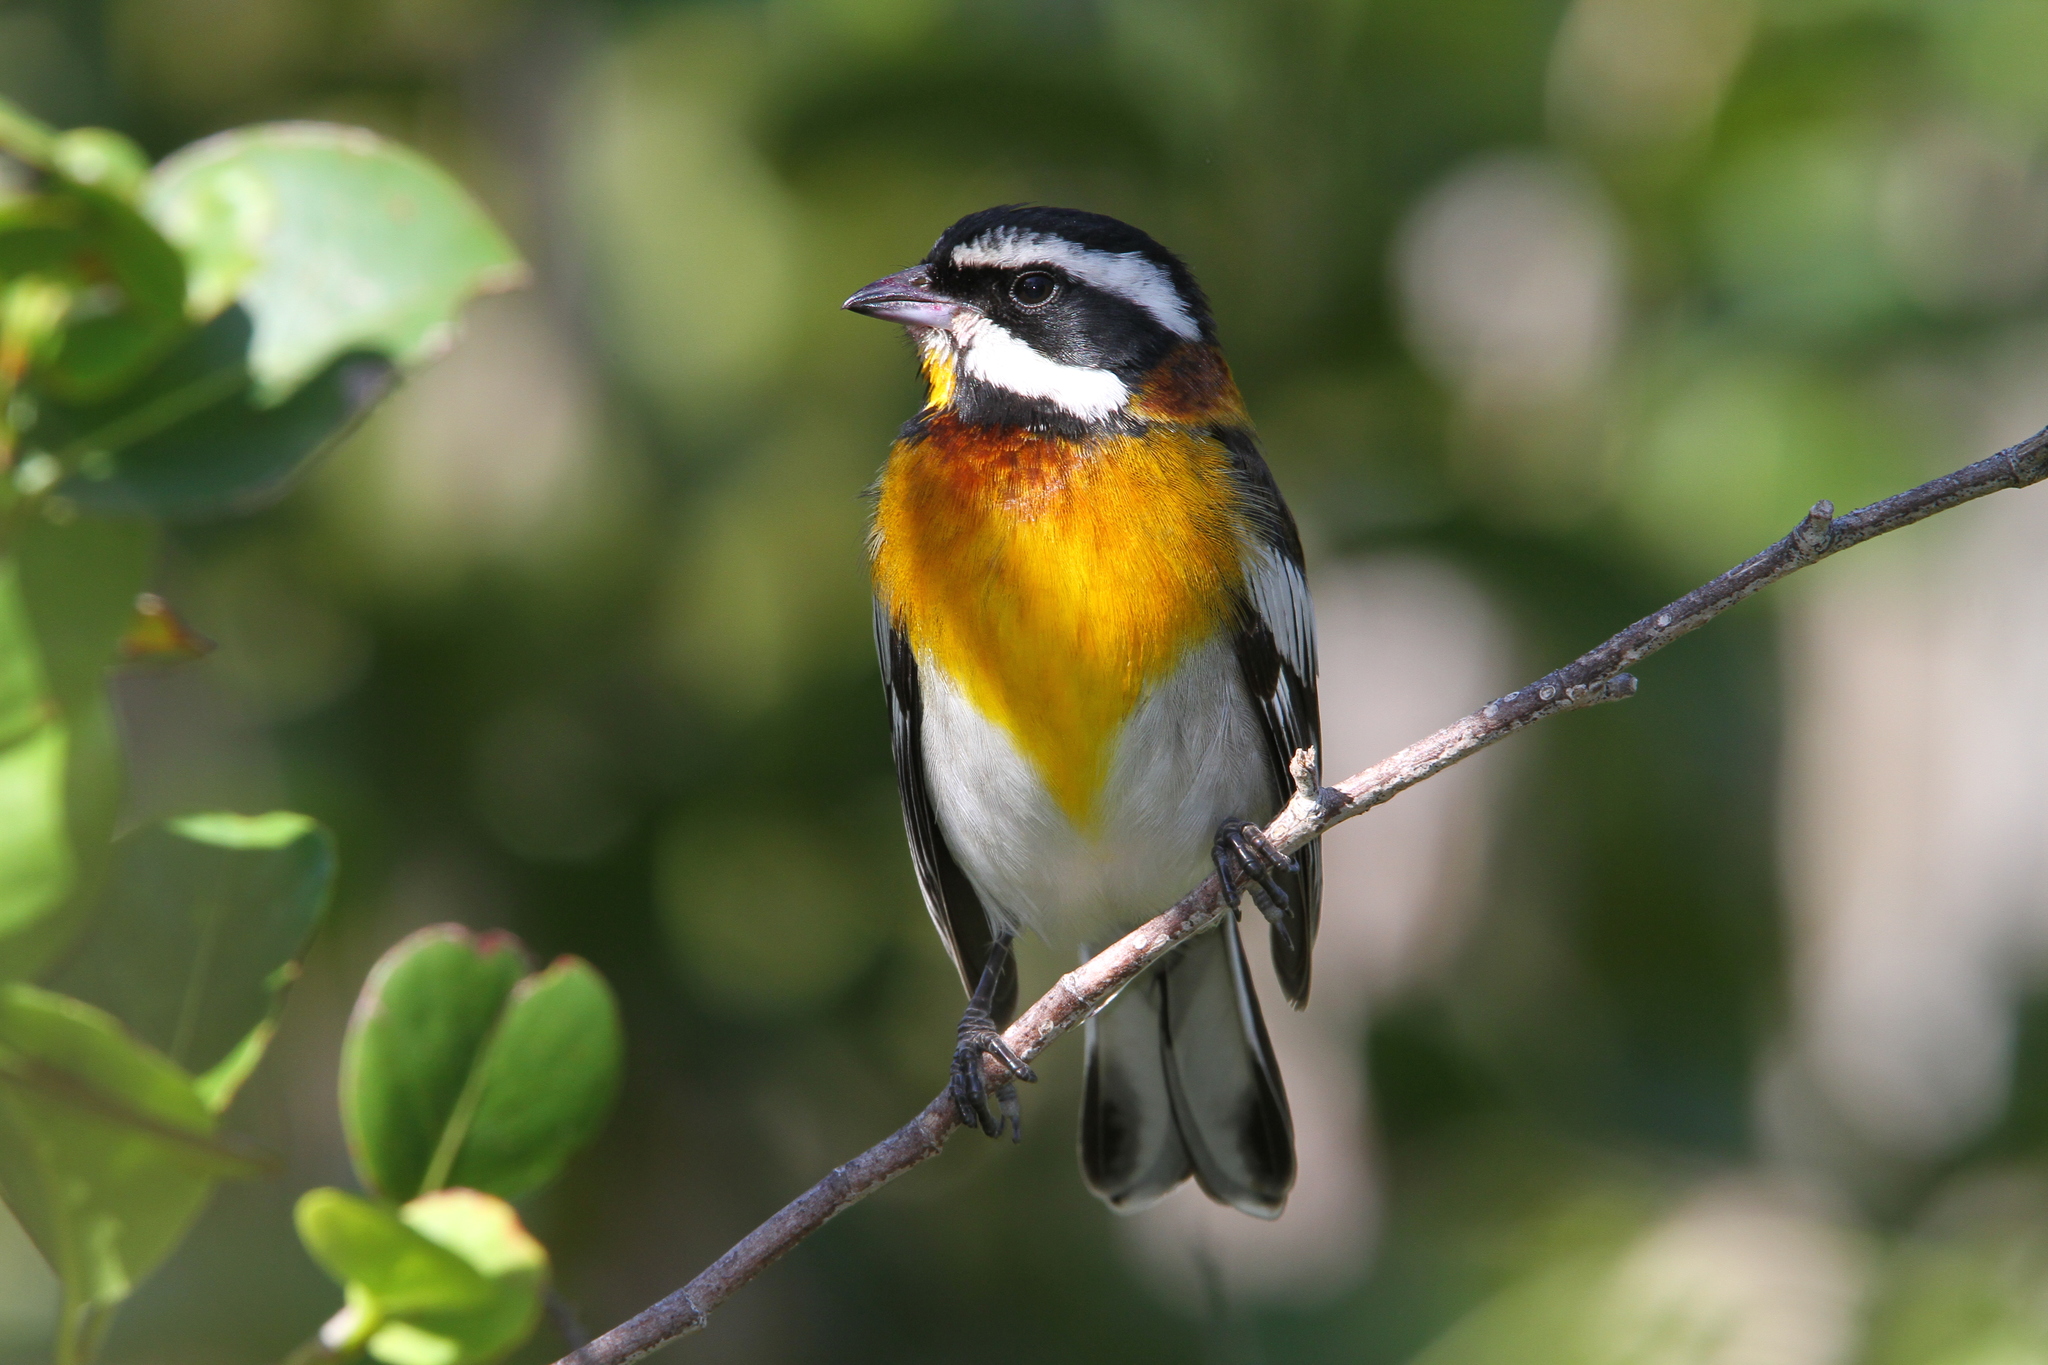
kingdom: Animalia
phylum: Chordata
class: Aves
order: Passeriformes
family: Spindalidae
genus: Spindalis
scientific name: Spindalis zena
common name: Western spindalis
